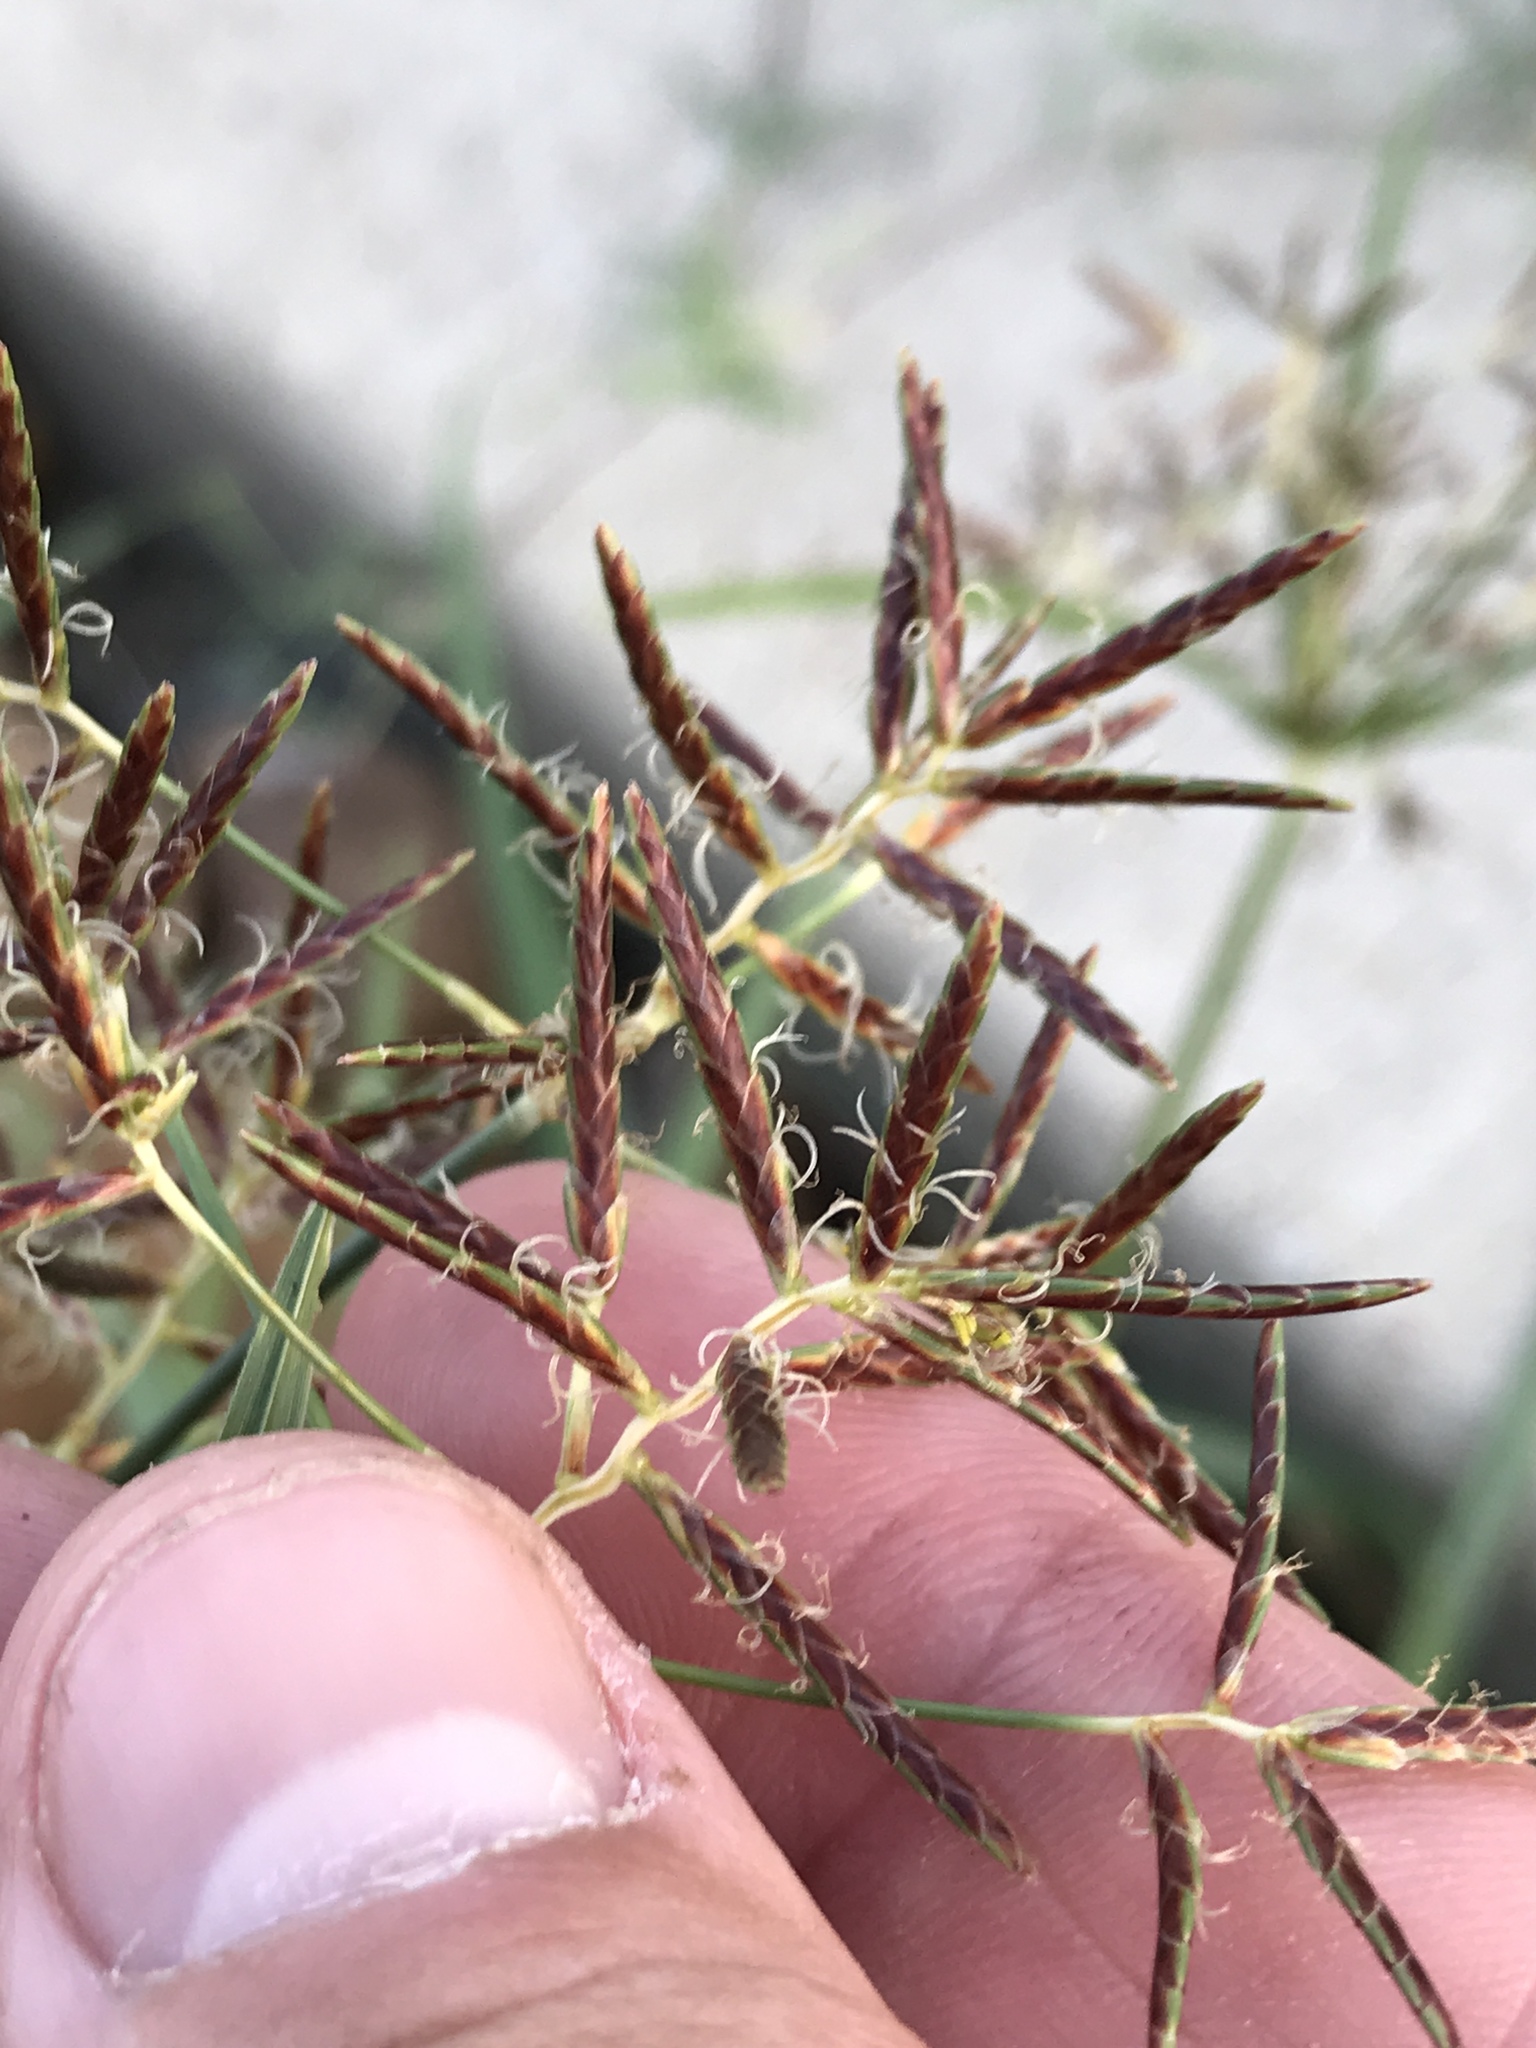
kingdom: Plantae
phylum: Tracheophyta
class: Liliopsida
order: Poales
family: Cyperaceae
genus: Cyperus
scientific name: Cyperus rotundus
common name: Nutgrass
